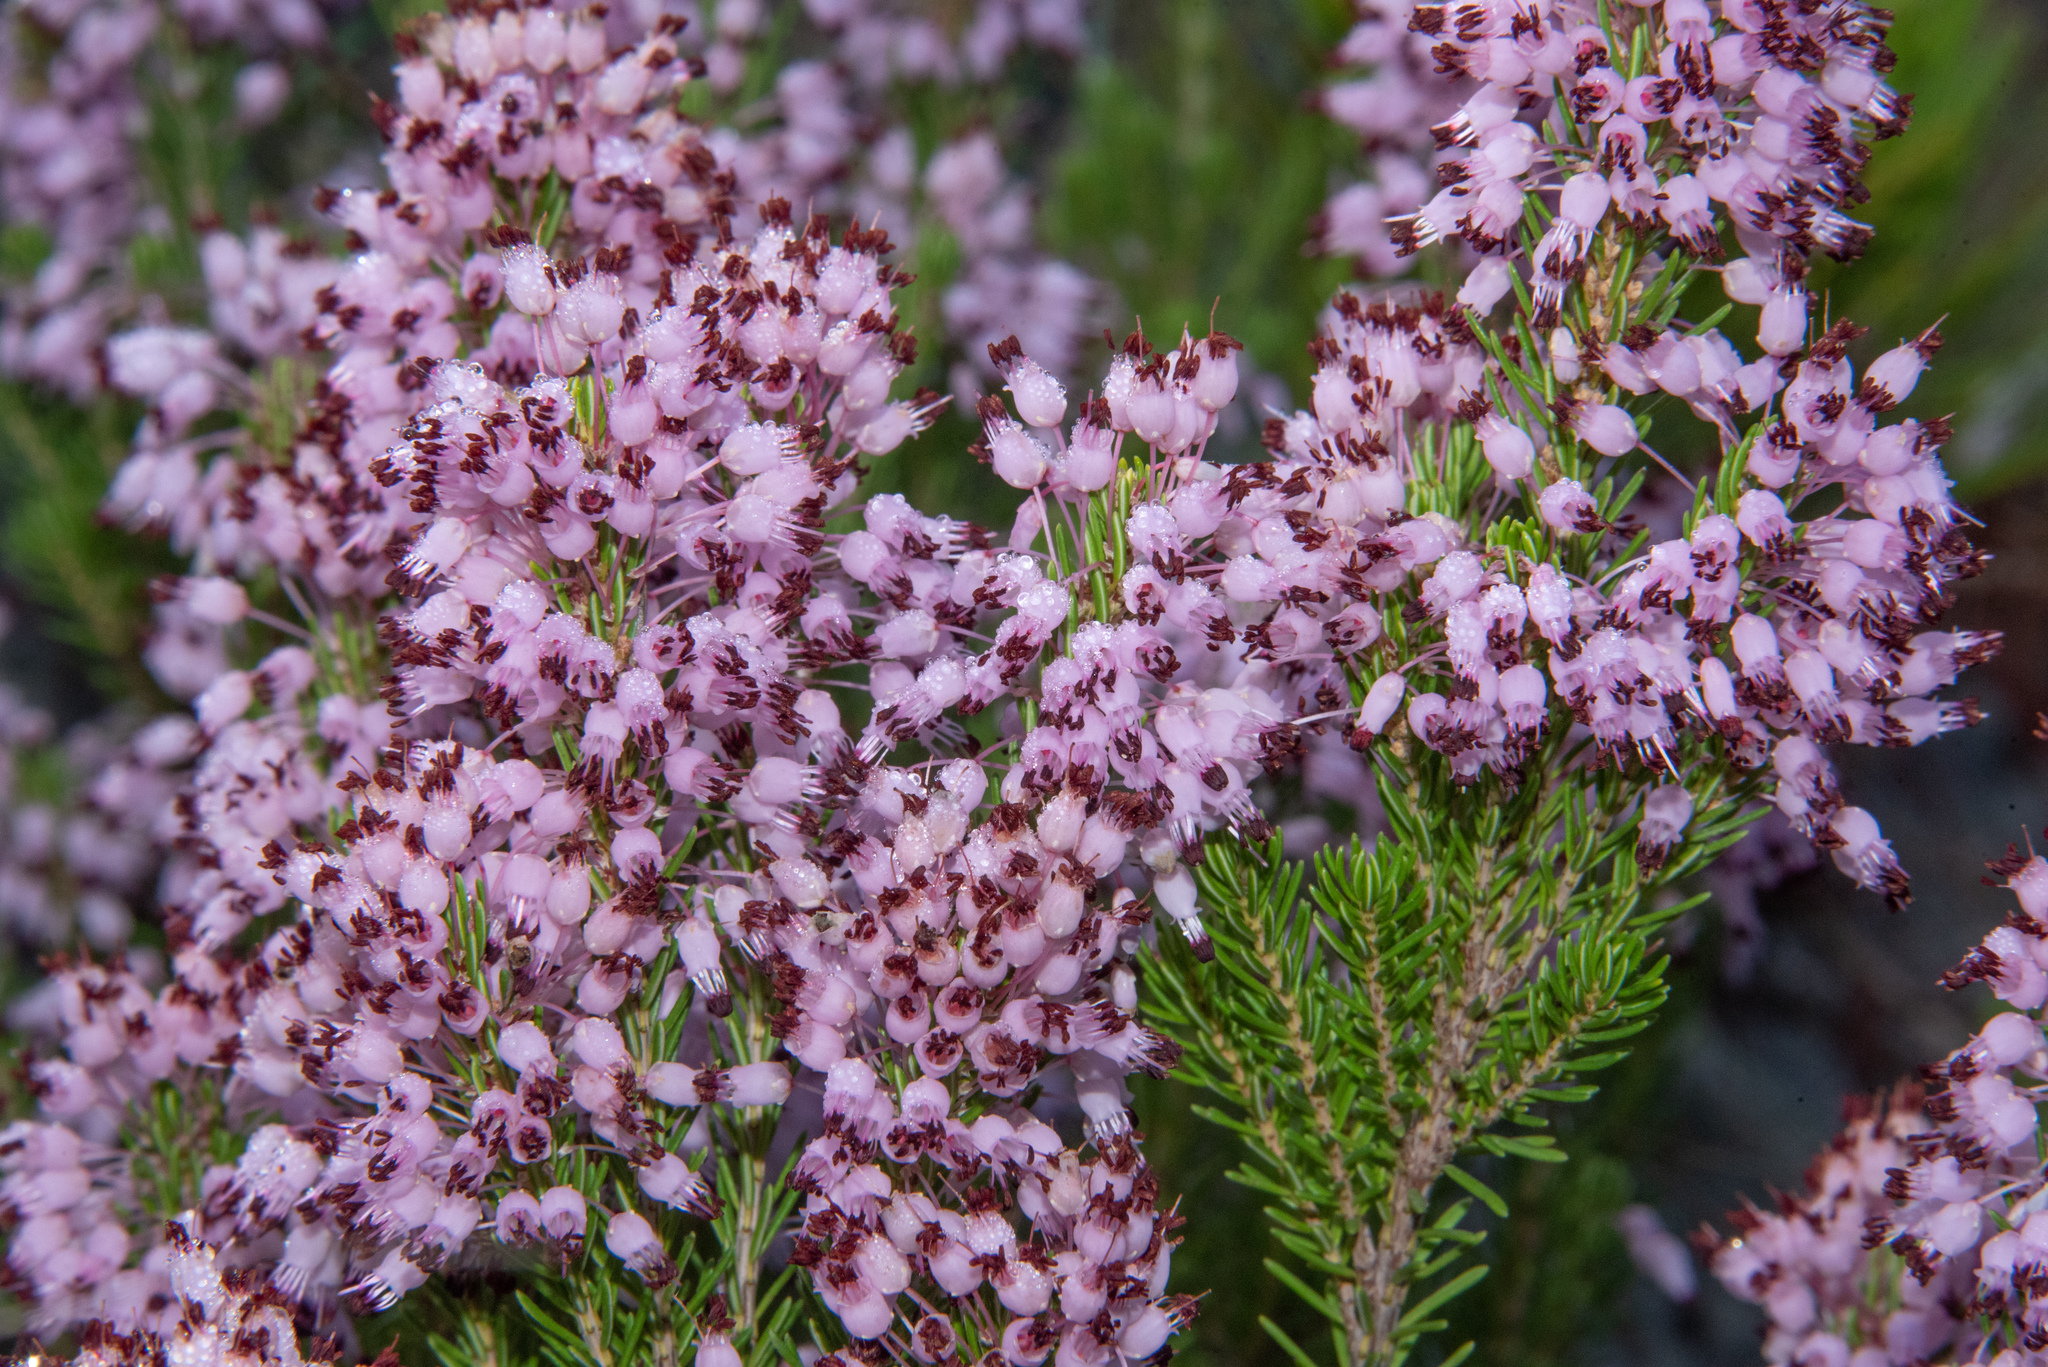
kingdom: Plantae
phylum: Tracheophyta
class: Magnoliopsida
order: Ericales
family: Ericaceae
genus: Erica
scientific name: Erica multiflora
